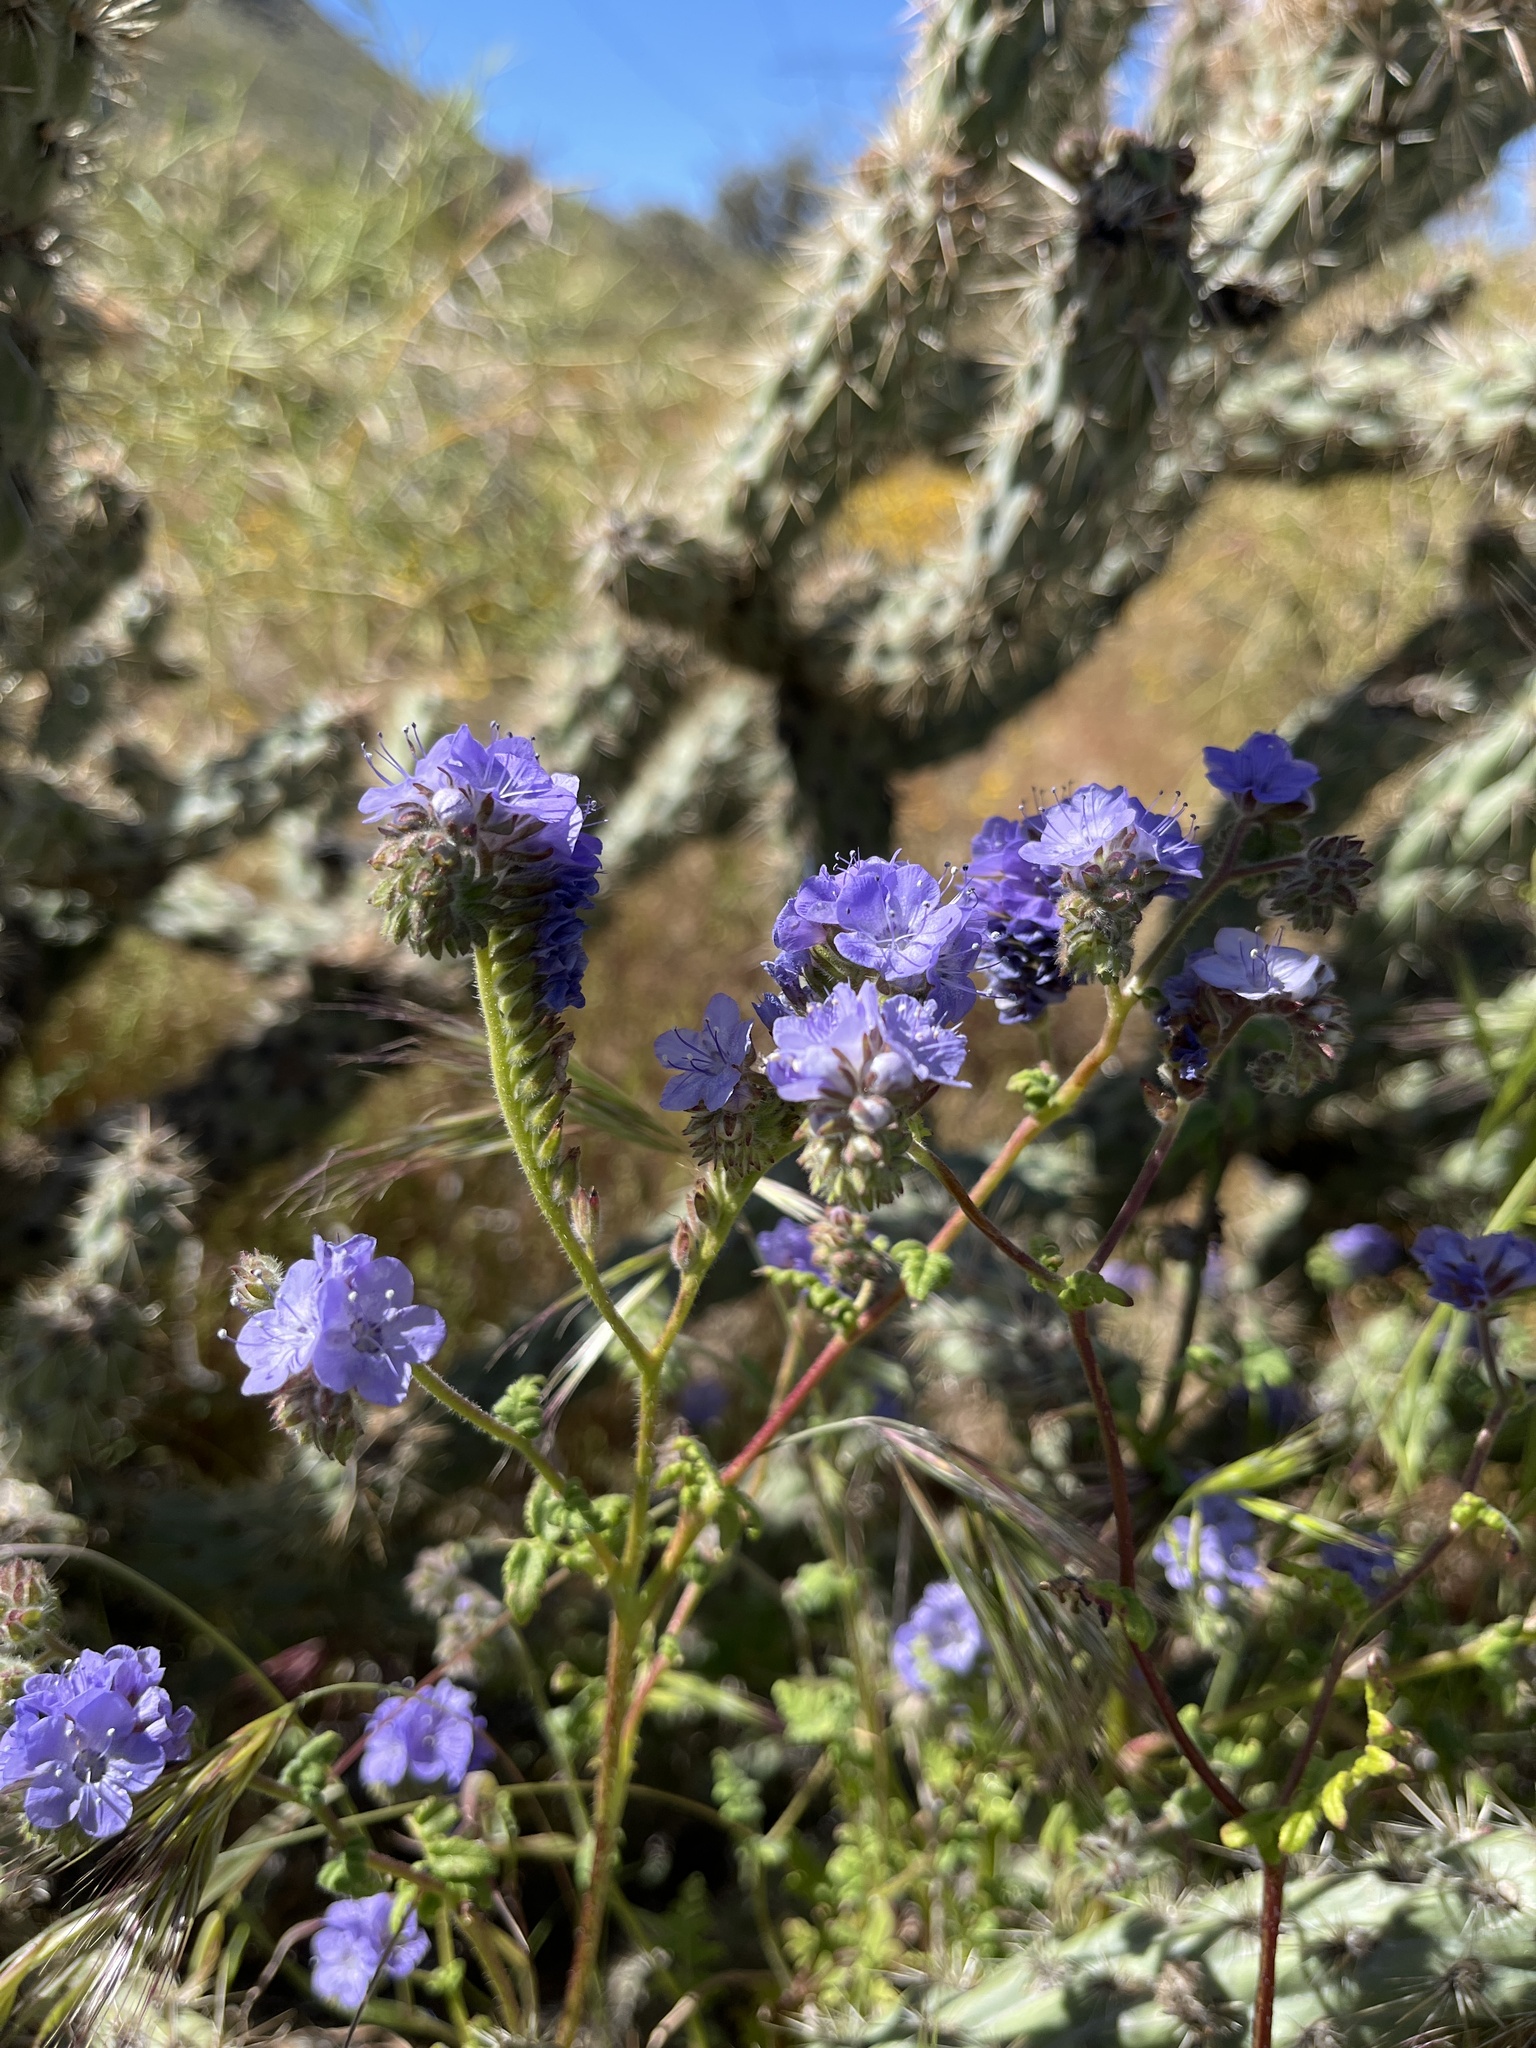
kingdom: Plantae
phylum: Tracheophyta
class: Magnoliopsida
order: Boraginales
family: Hydrophyllaceae
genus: Phacelia
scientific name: Phacelia distans
